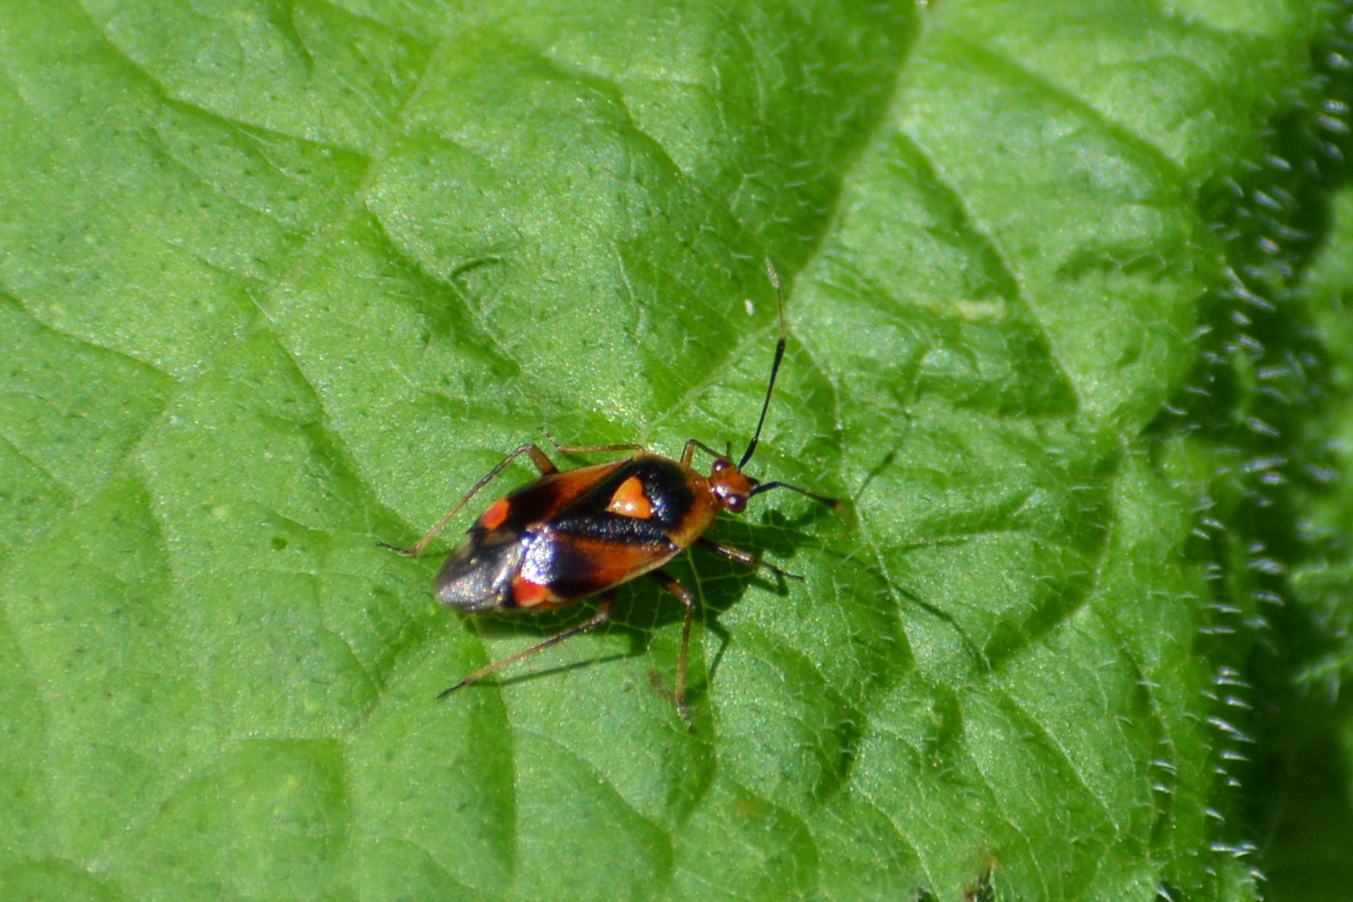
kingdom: Animalia
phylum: Arthropoda
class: Insecta
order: Hemiptera
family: Miridae
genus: Deraeocoris
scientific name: Deraeocoris ruber
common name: Plant bug
